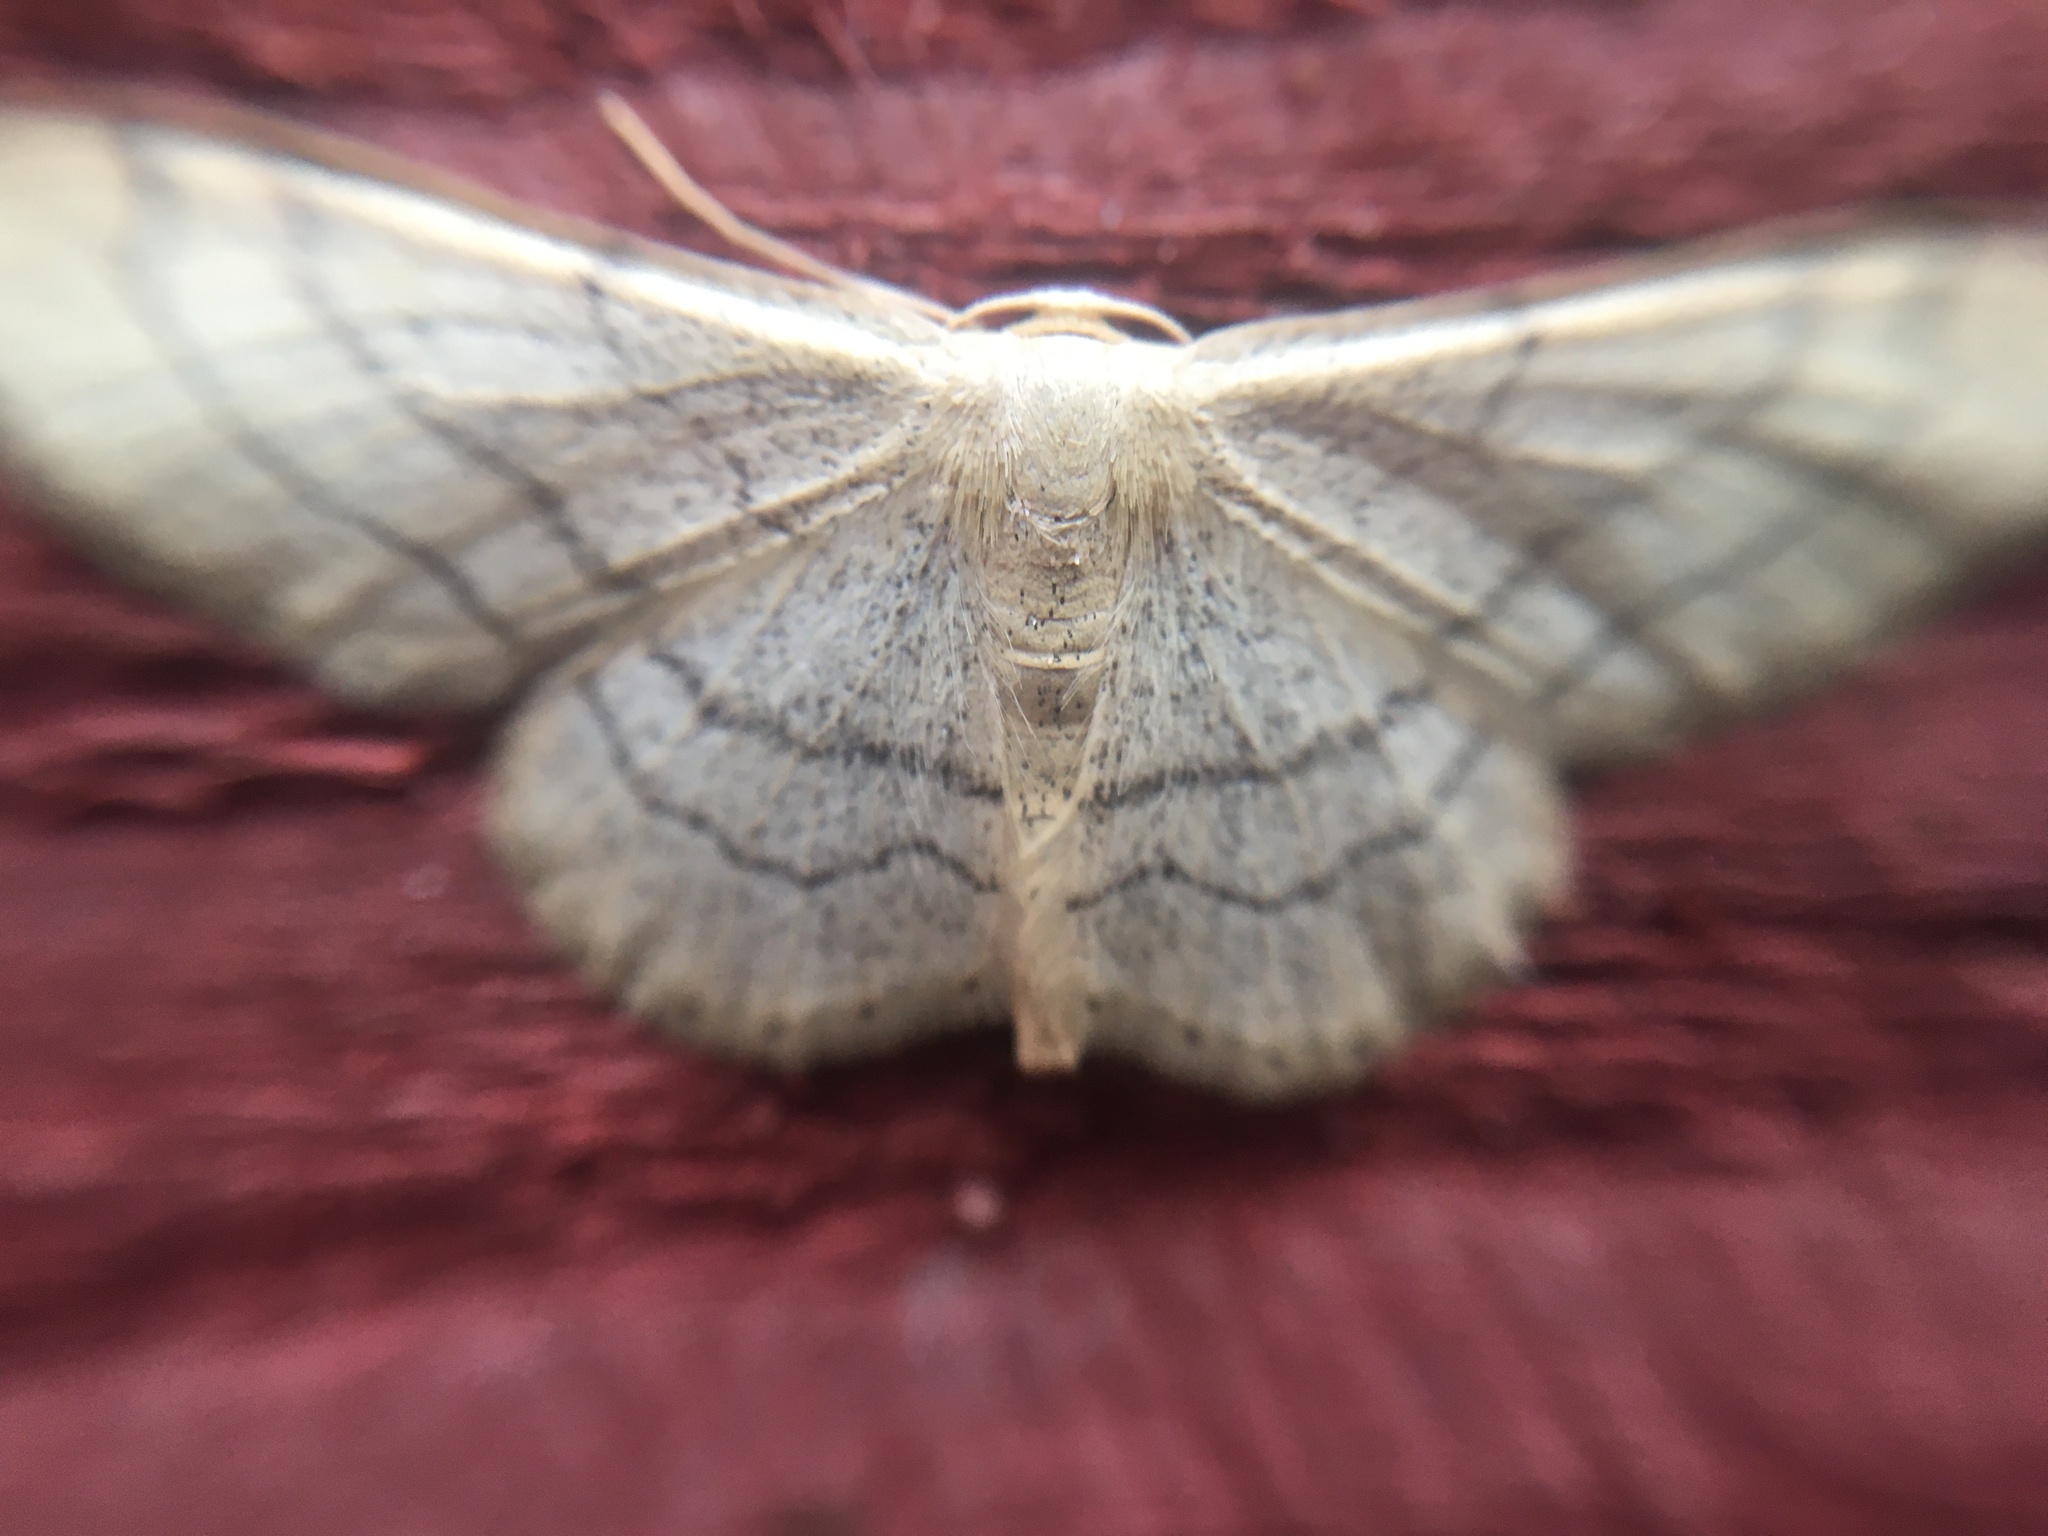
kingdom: Animalia
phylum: Arthropoda
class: Insecta
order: Lepidoptera
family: Geometridae
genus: Idaea
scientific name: Idaea aversata
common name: Riband wave
